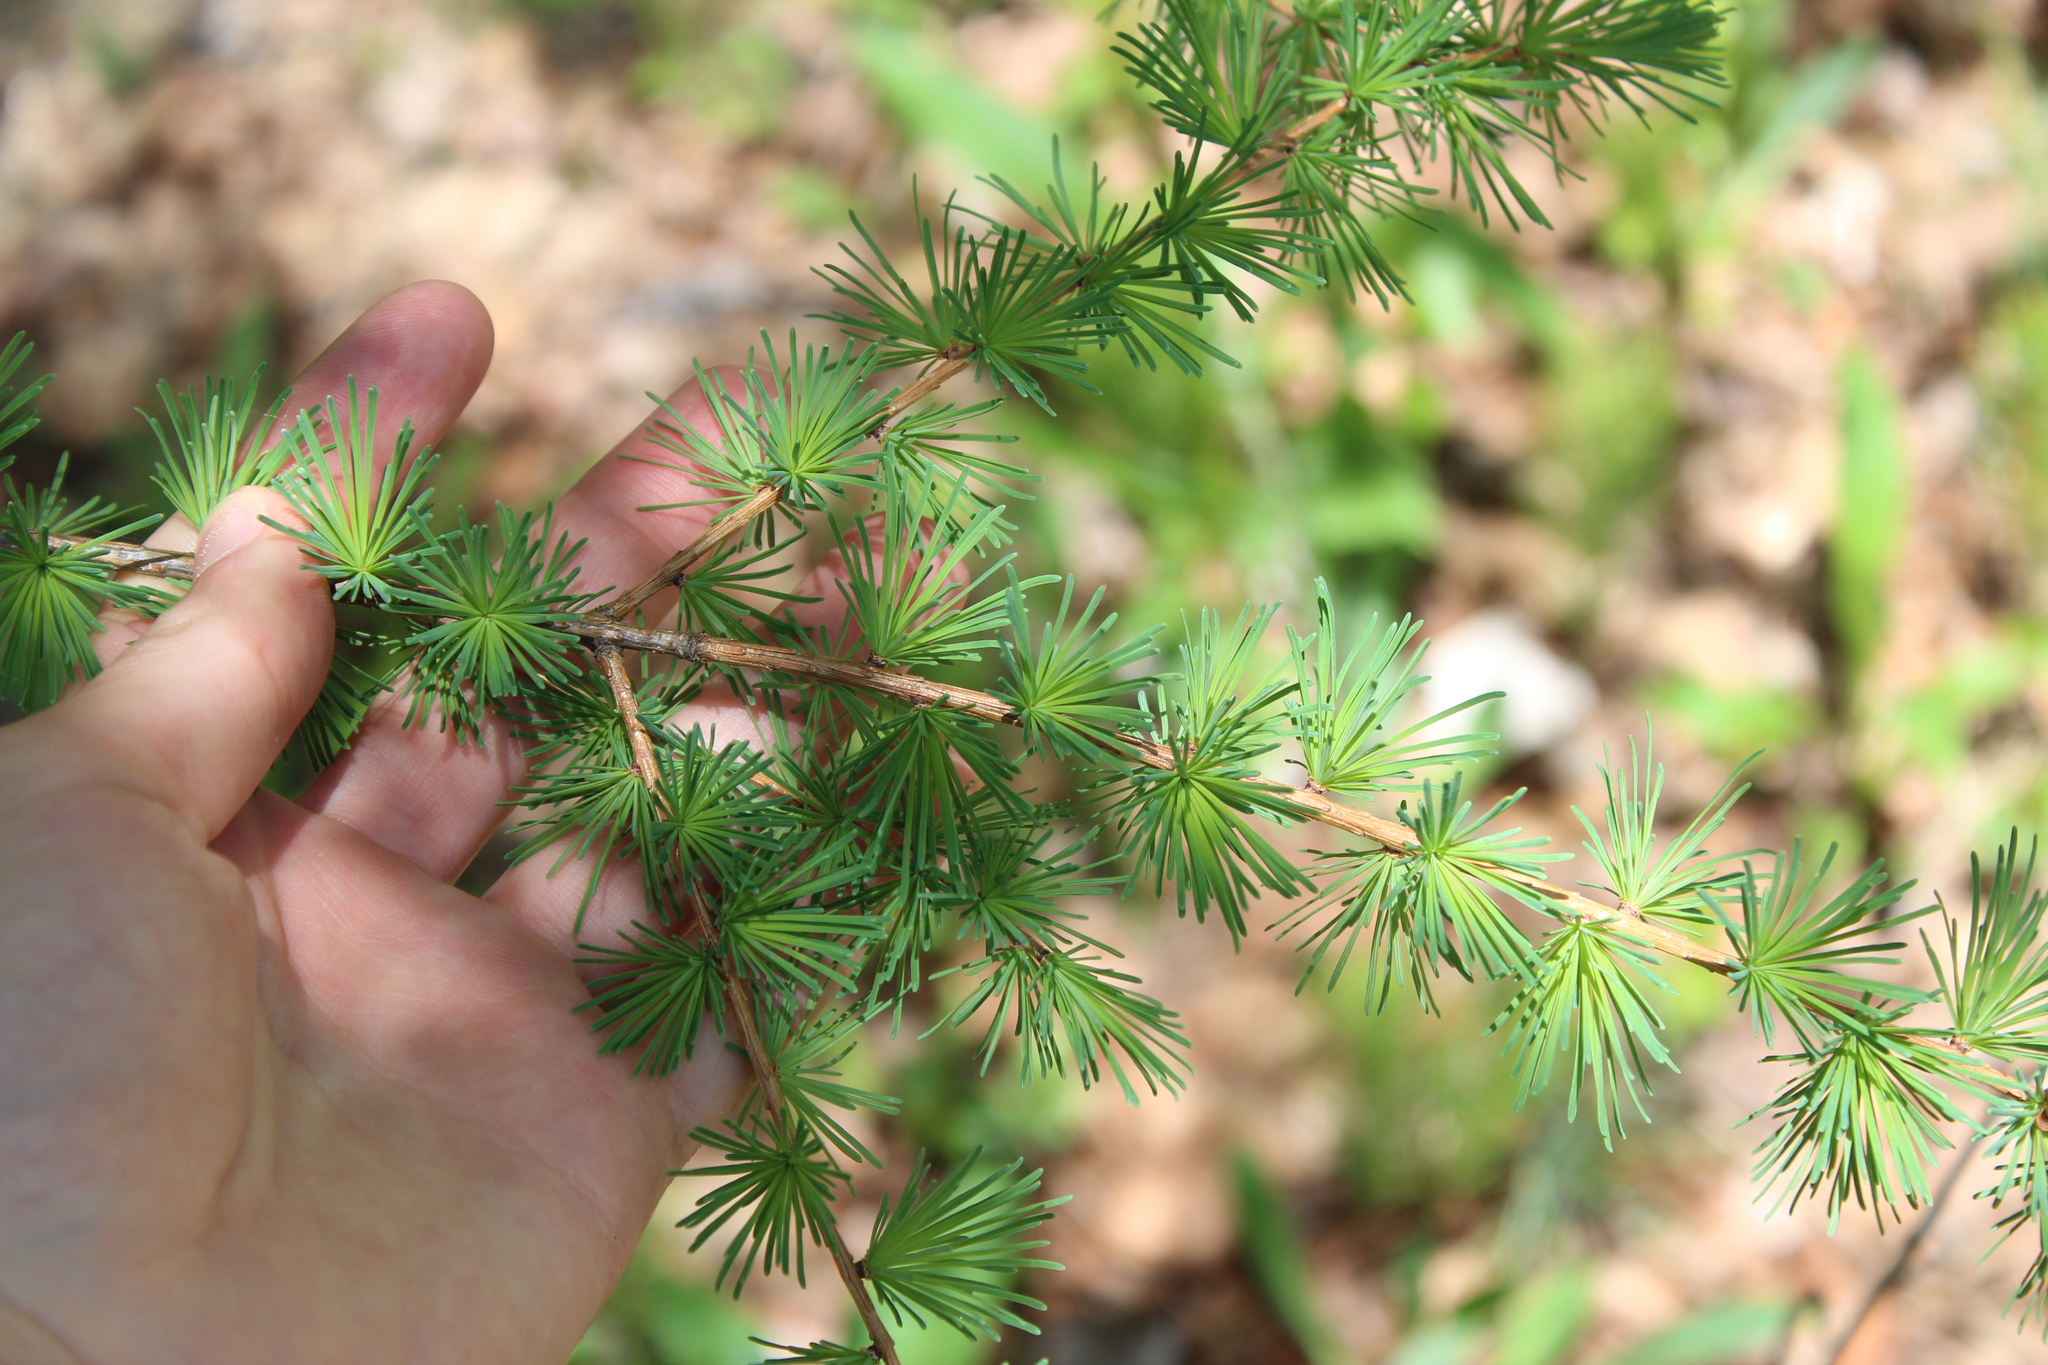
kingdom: Plantae
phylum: Tracheophyta
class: Pinopsida
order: Pinales
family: Pinaceae
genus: Larix
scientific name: Larix laricina
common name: American larch
